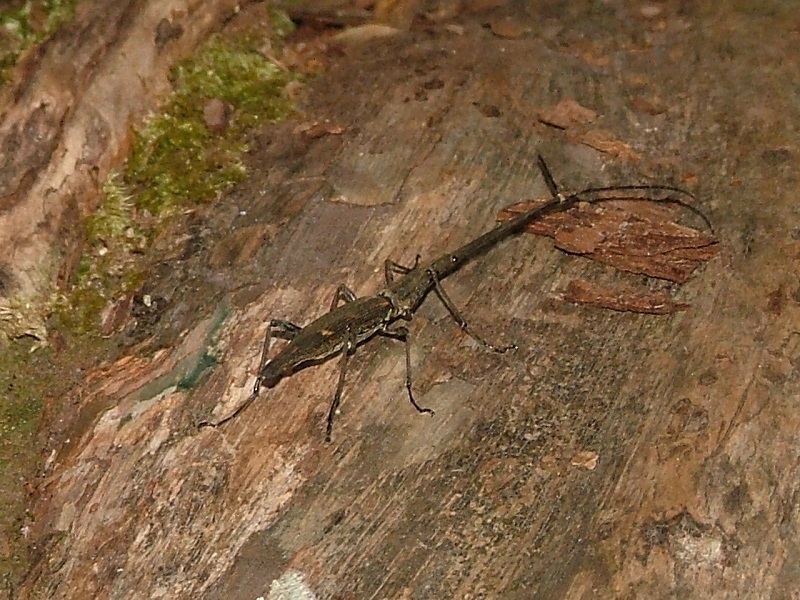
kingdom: Animalia
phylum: Arthropoda
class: Insecta
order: Coleoptera
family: Brentidae
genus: Lasiorhynchus
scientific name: Lasiorhynchus barbicornis
